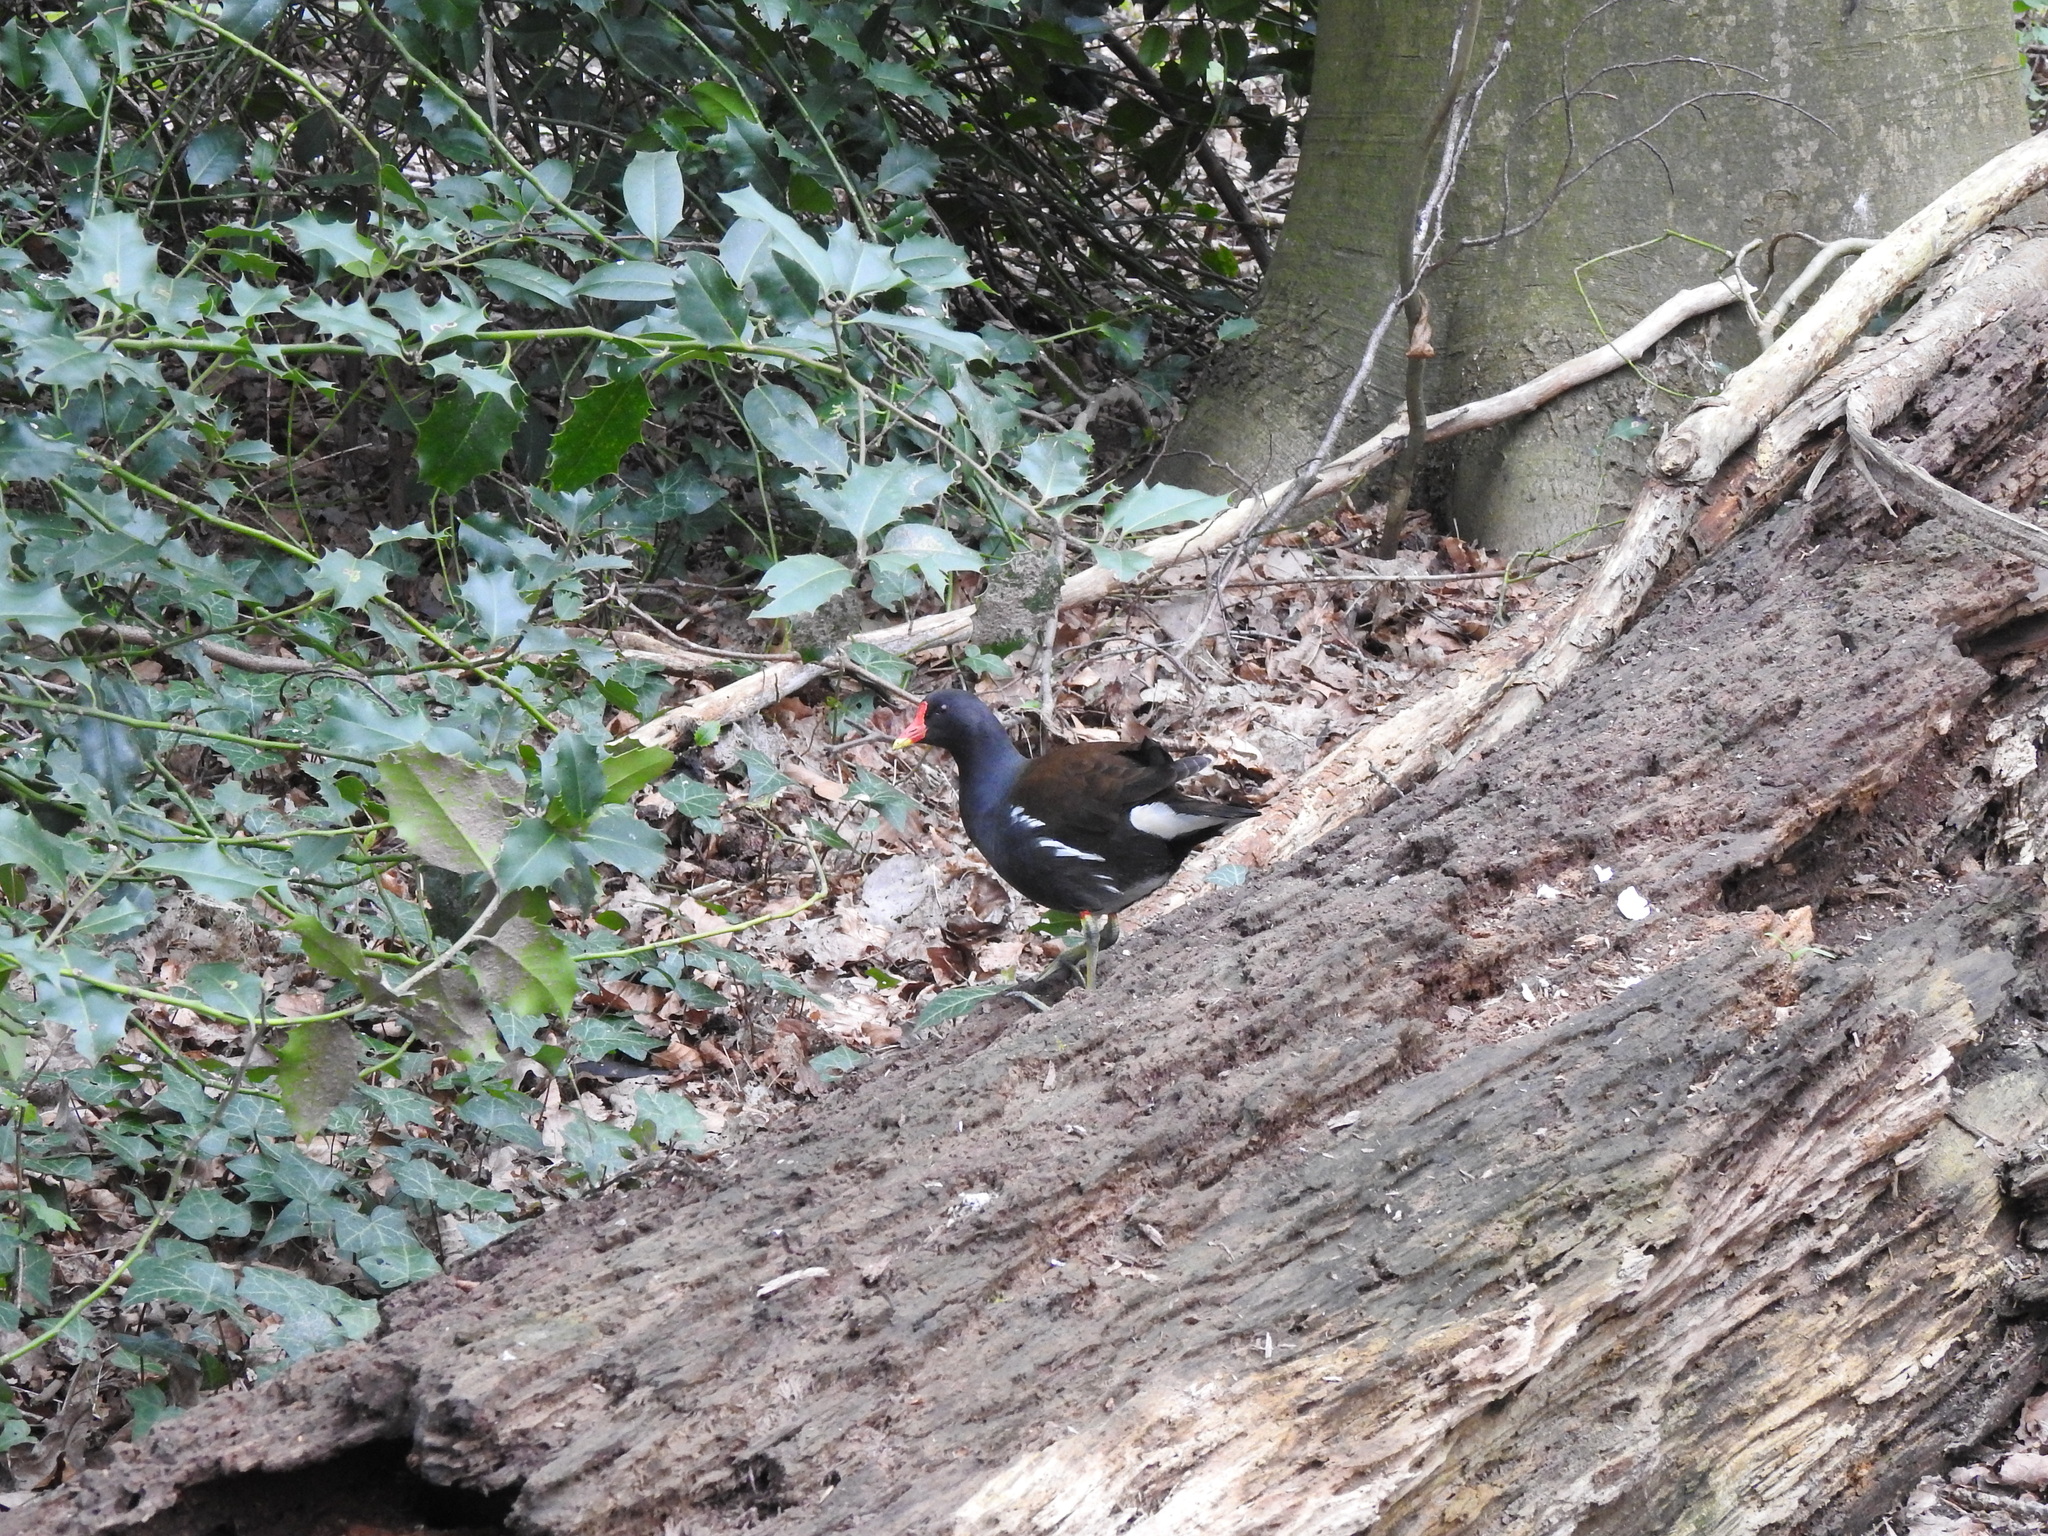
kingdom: Animalia
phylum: Chordata
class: Aves
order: Gruiformes
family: Rallidae
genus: Gallinula
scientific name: Gallinula chloropus
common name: Common moorhen
